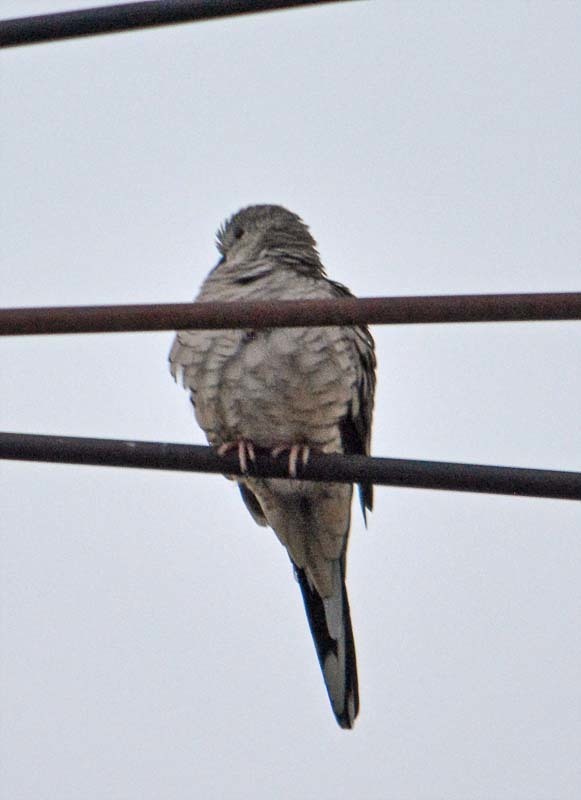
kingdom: Animalia
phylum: Chordata
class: Aves
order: Columbiformes
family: Columbidae
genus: Columbina
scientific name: Columbina inca
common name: Inca dove
